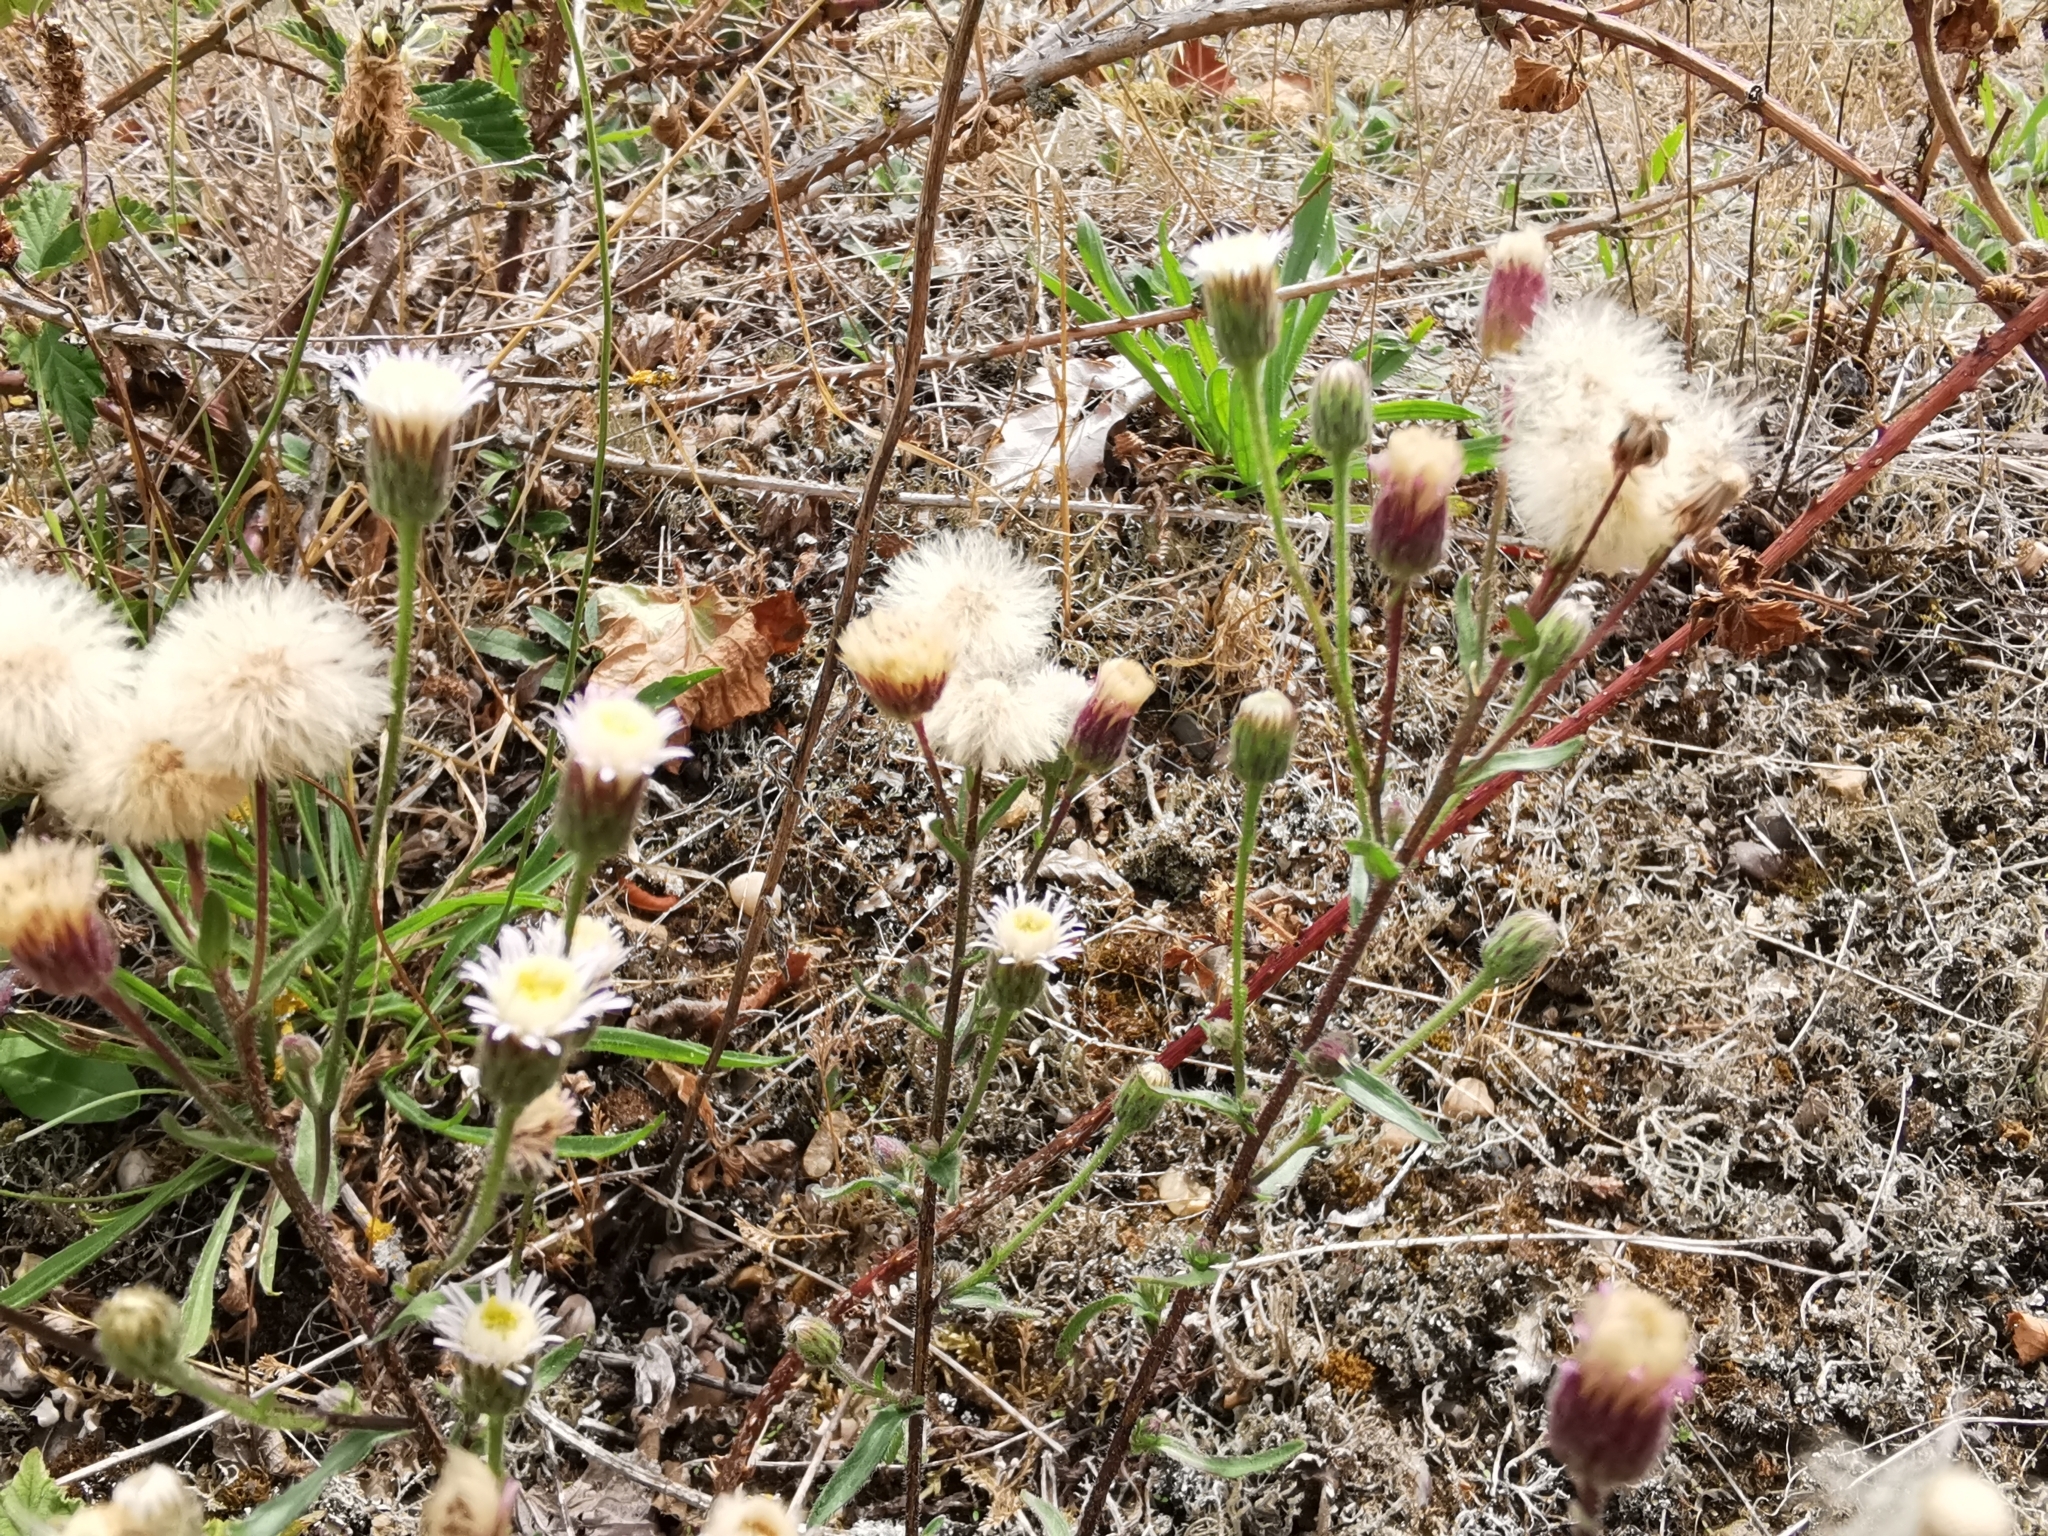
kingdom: Plantae
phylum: Tracheophyta
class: Magnoliopsida
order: Asterales
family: Asteraceae
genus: Erigeron
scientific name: Erigeron acris
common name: Blue fleabane
